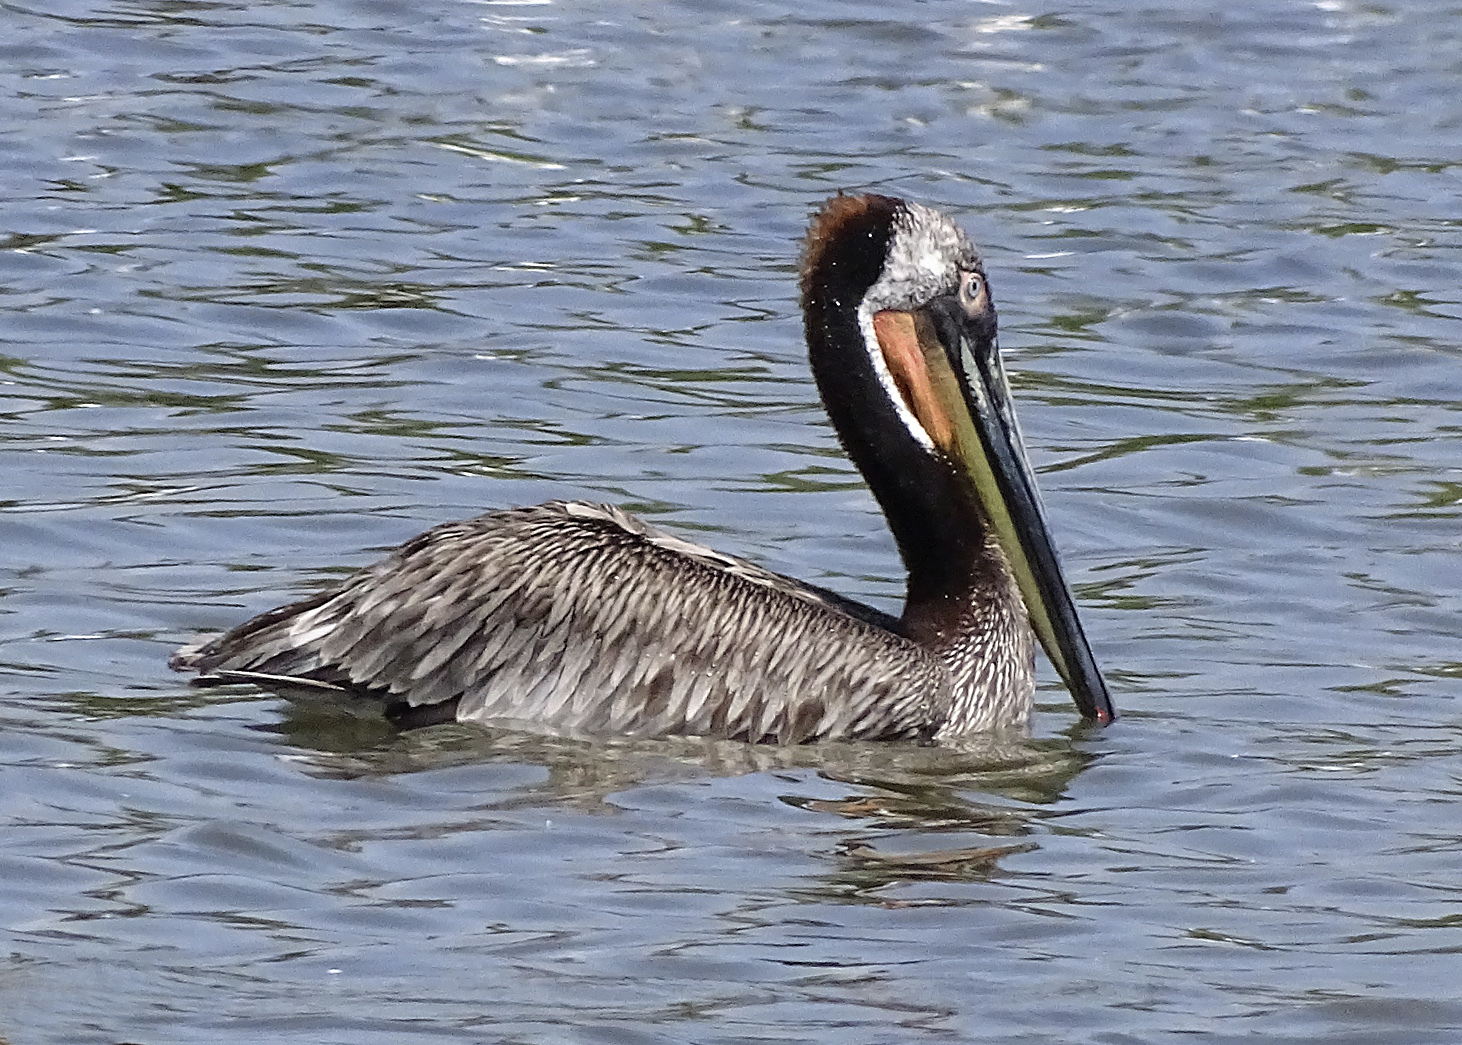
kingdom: Animalia
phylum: Chordata
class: Aves
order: Pelecaniformes
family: Pelecanidae
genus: Pelecanus
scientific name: Pelecanus occidentalis
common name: Brown pelican
